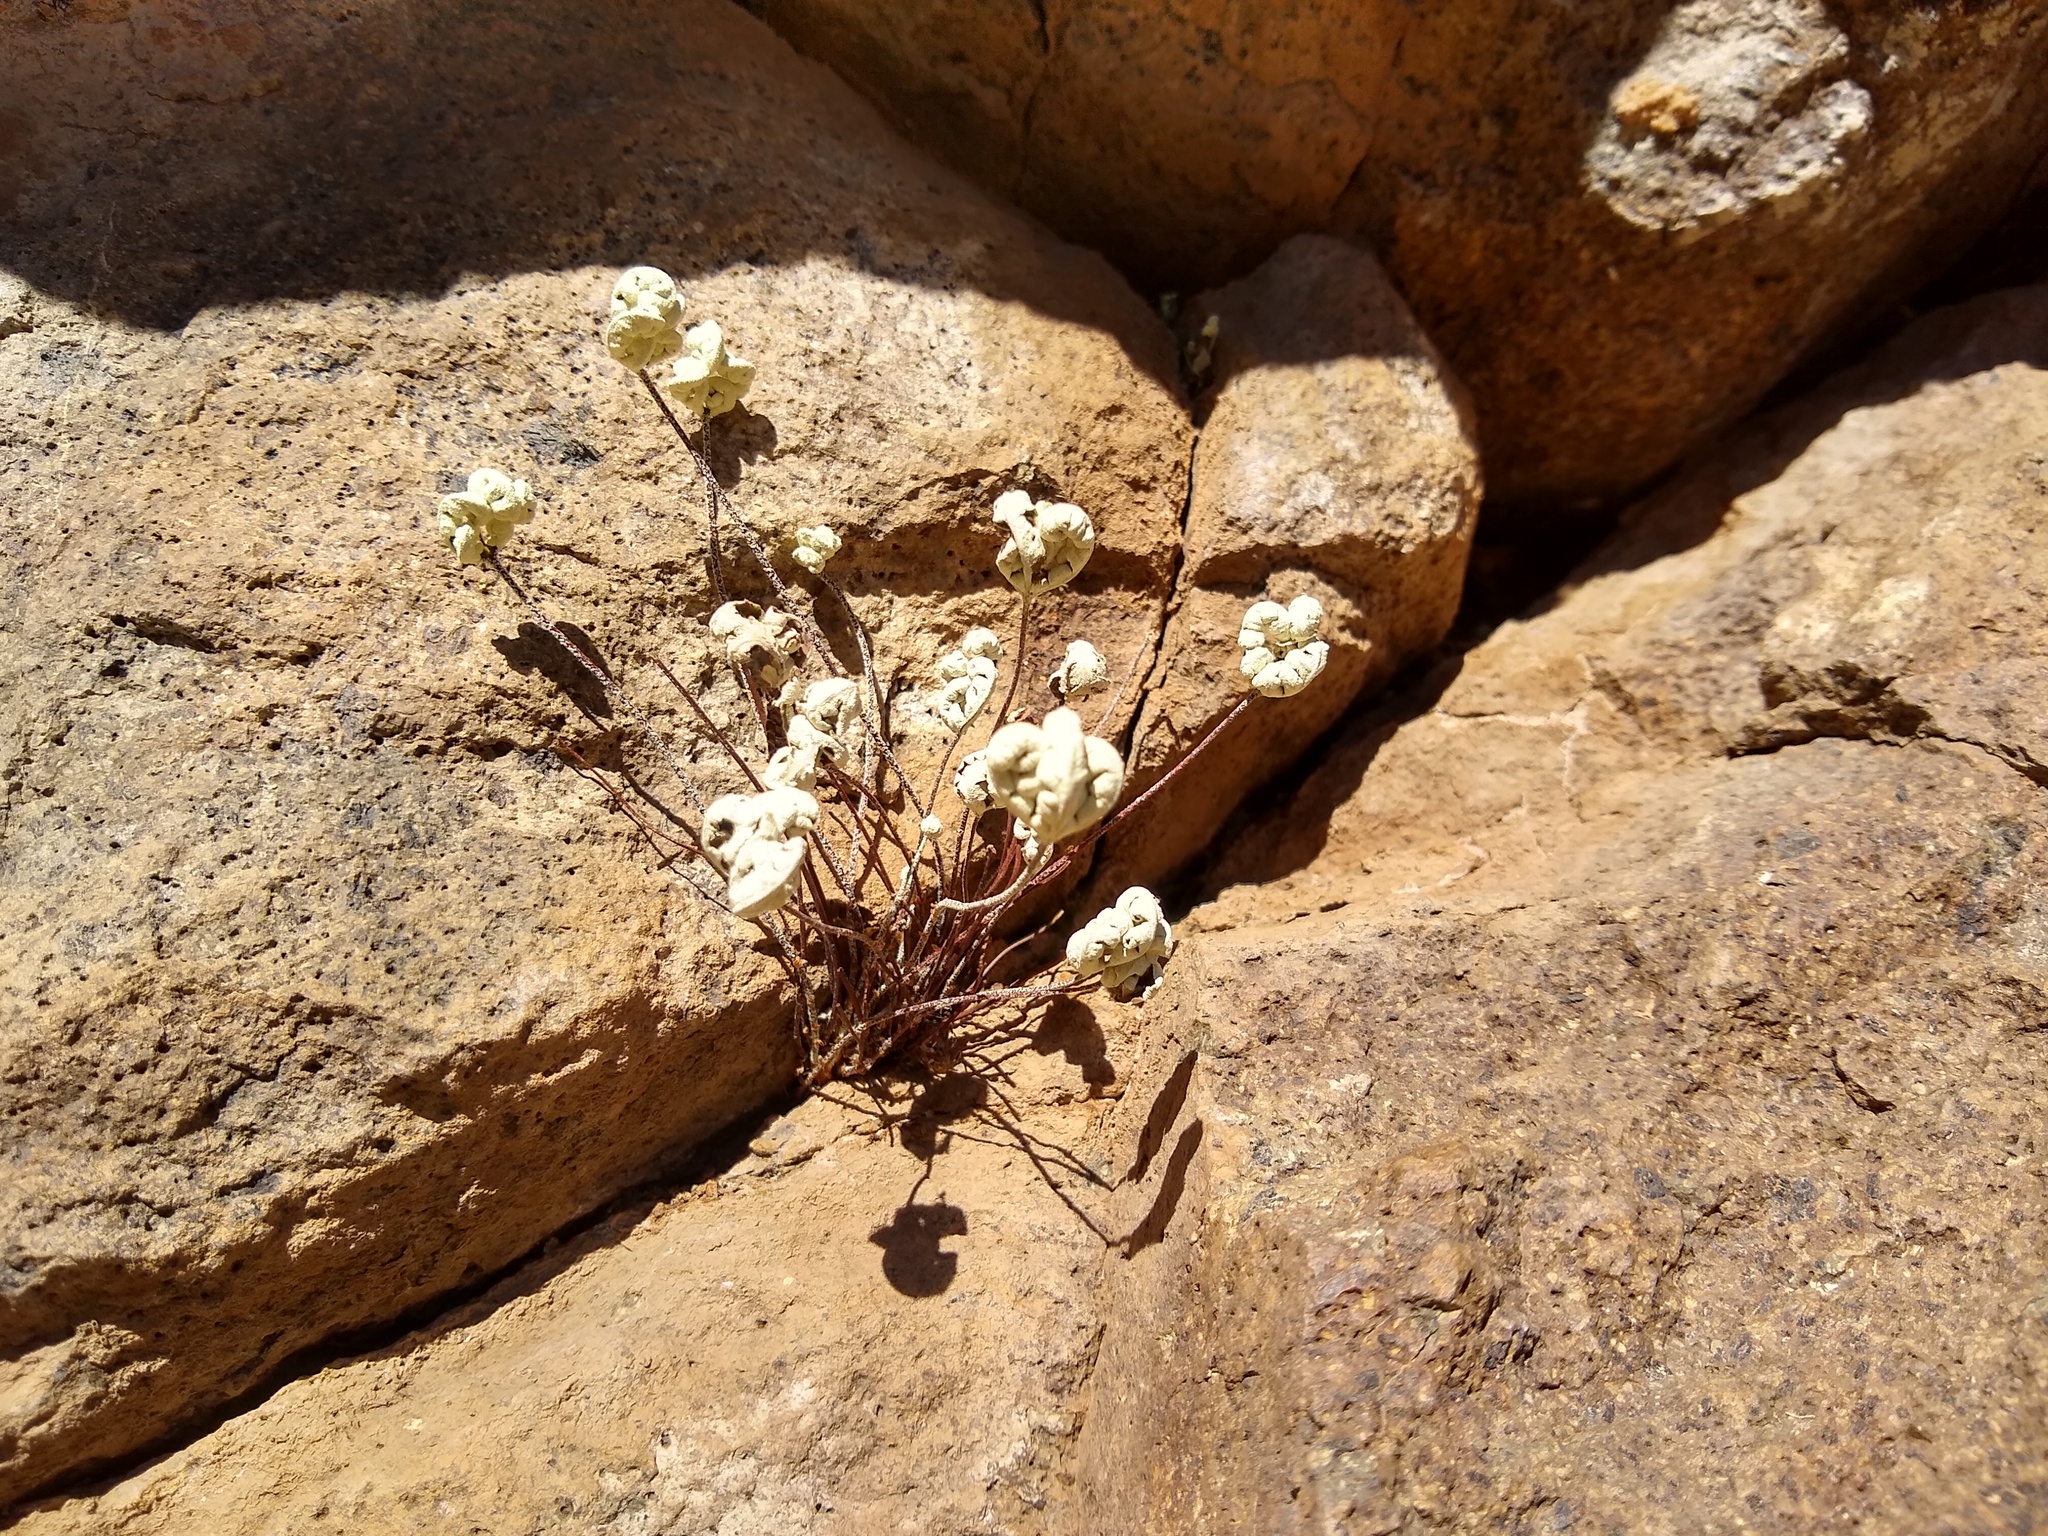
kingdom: Plantae
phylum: Tracheophyta
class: Polypodiopsida
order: Polypodiales
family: Pteridaceae
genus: Notholaena
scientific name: Notholaena standleyi
